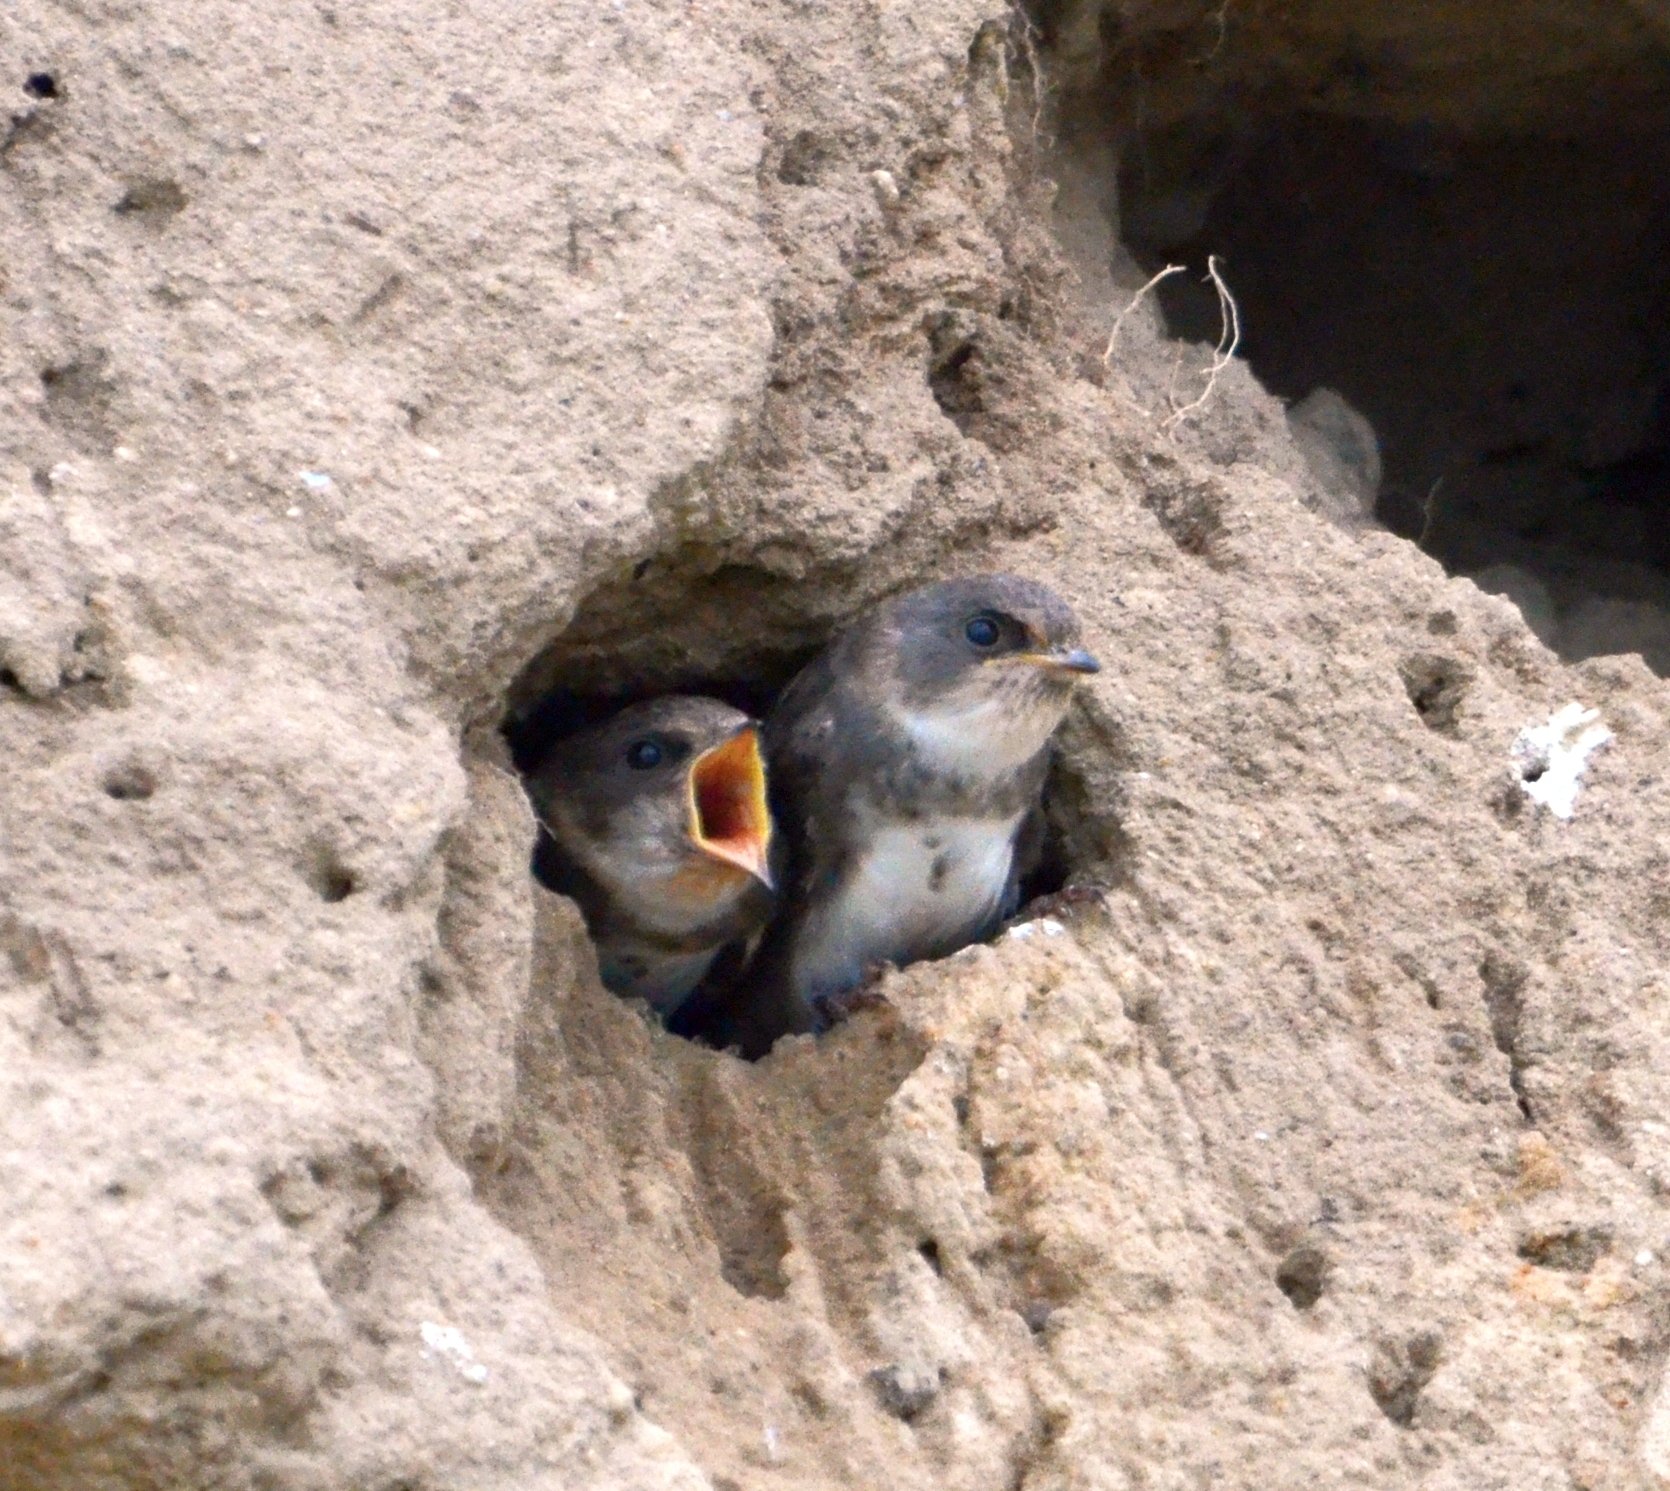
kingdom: Animalia
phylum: Chordata
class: Aves
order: Passeriformes
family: Hirundinidae
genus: Riparia
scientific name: Riparia riparia
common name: Sand martin
